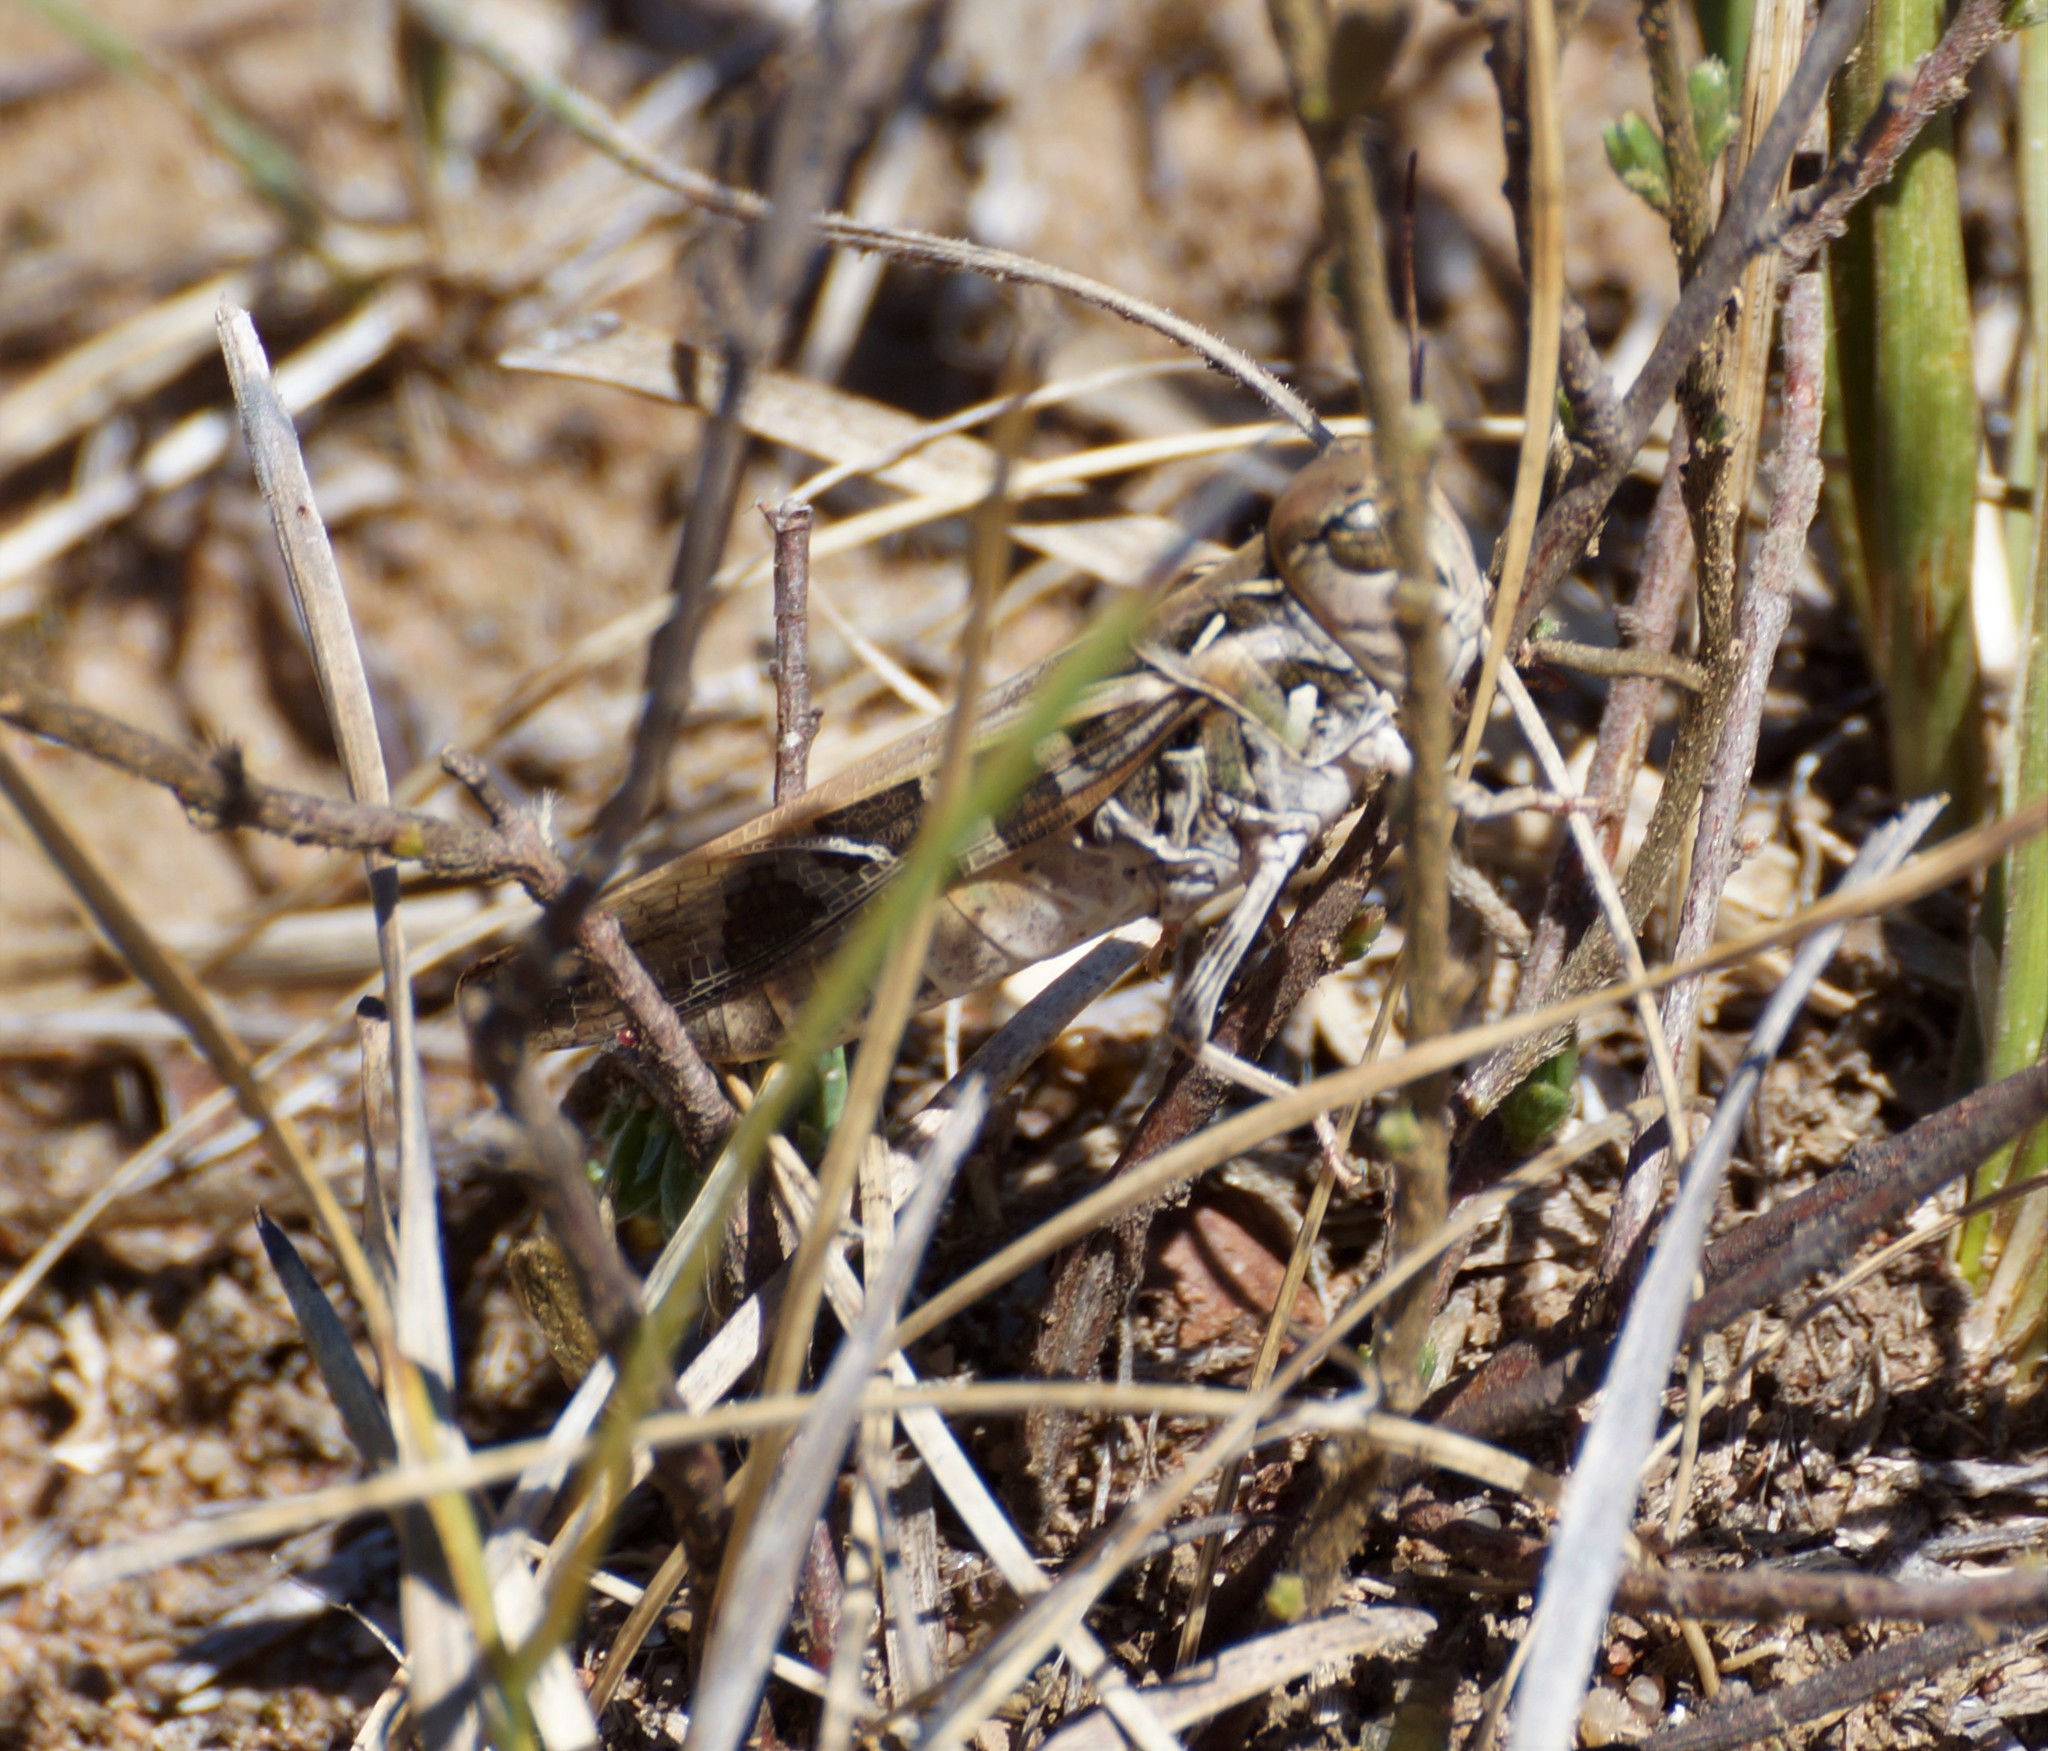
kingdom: Animalia
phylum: Arthropoda
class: Insecta
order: Orthoptera
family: Acrididae
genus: Oedaleus
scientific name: Oedaleus australis
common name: Eastern oedaleus
